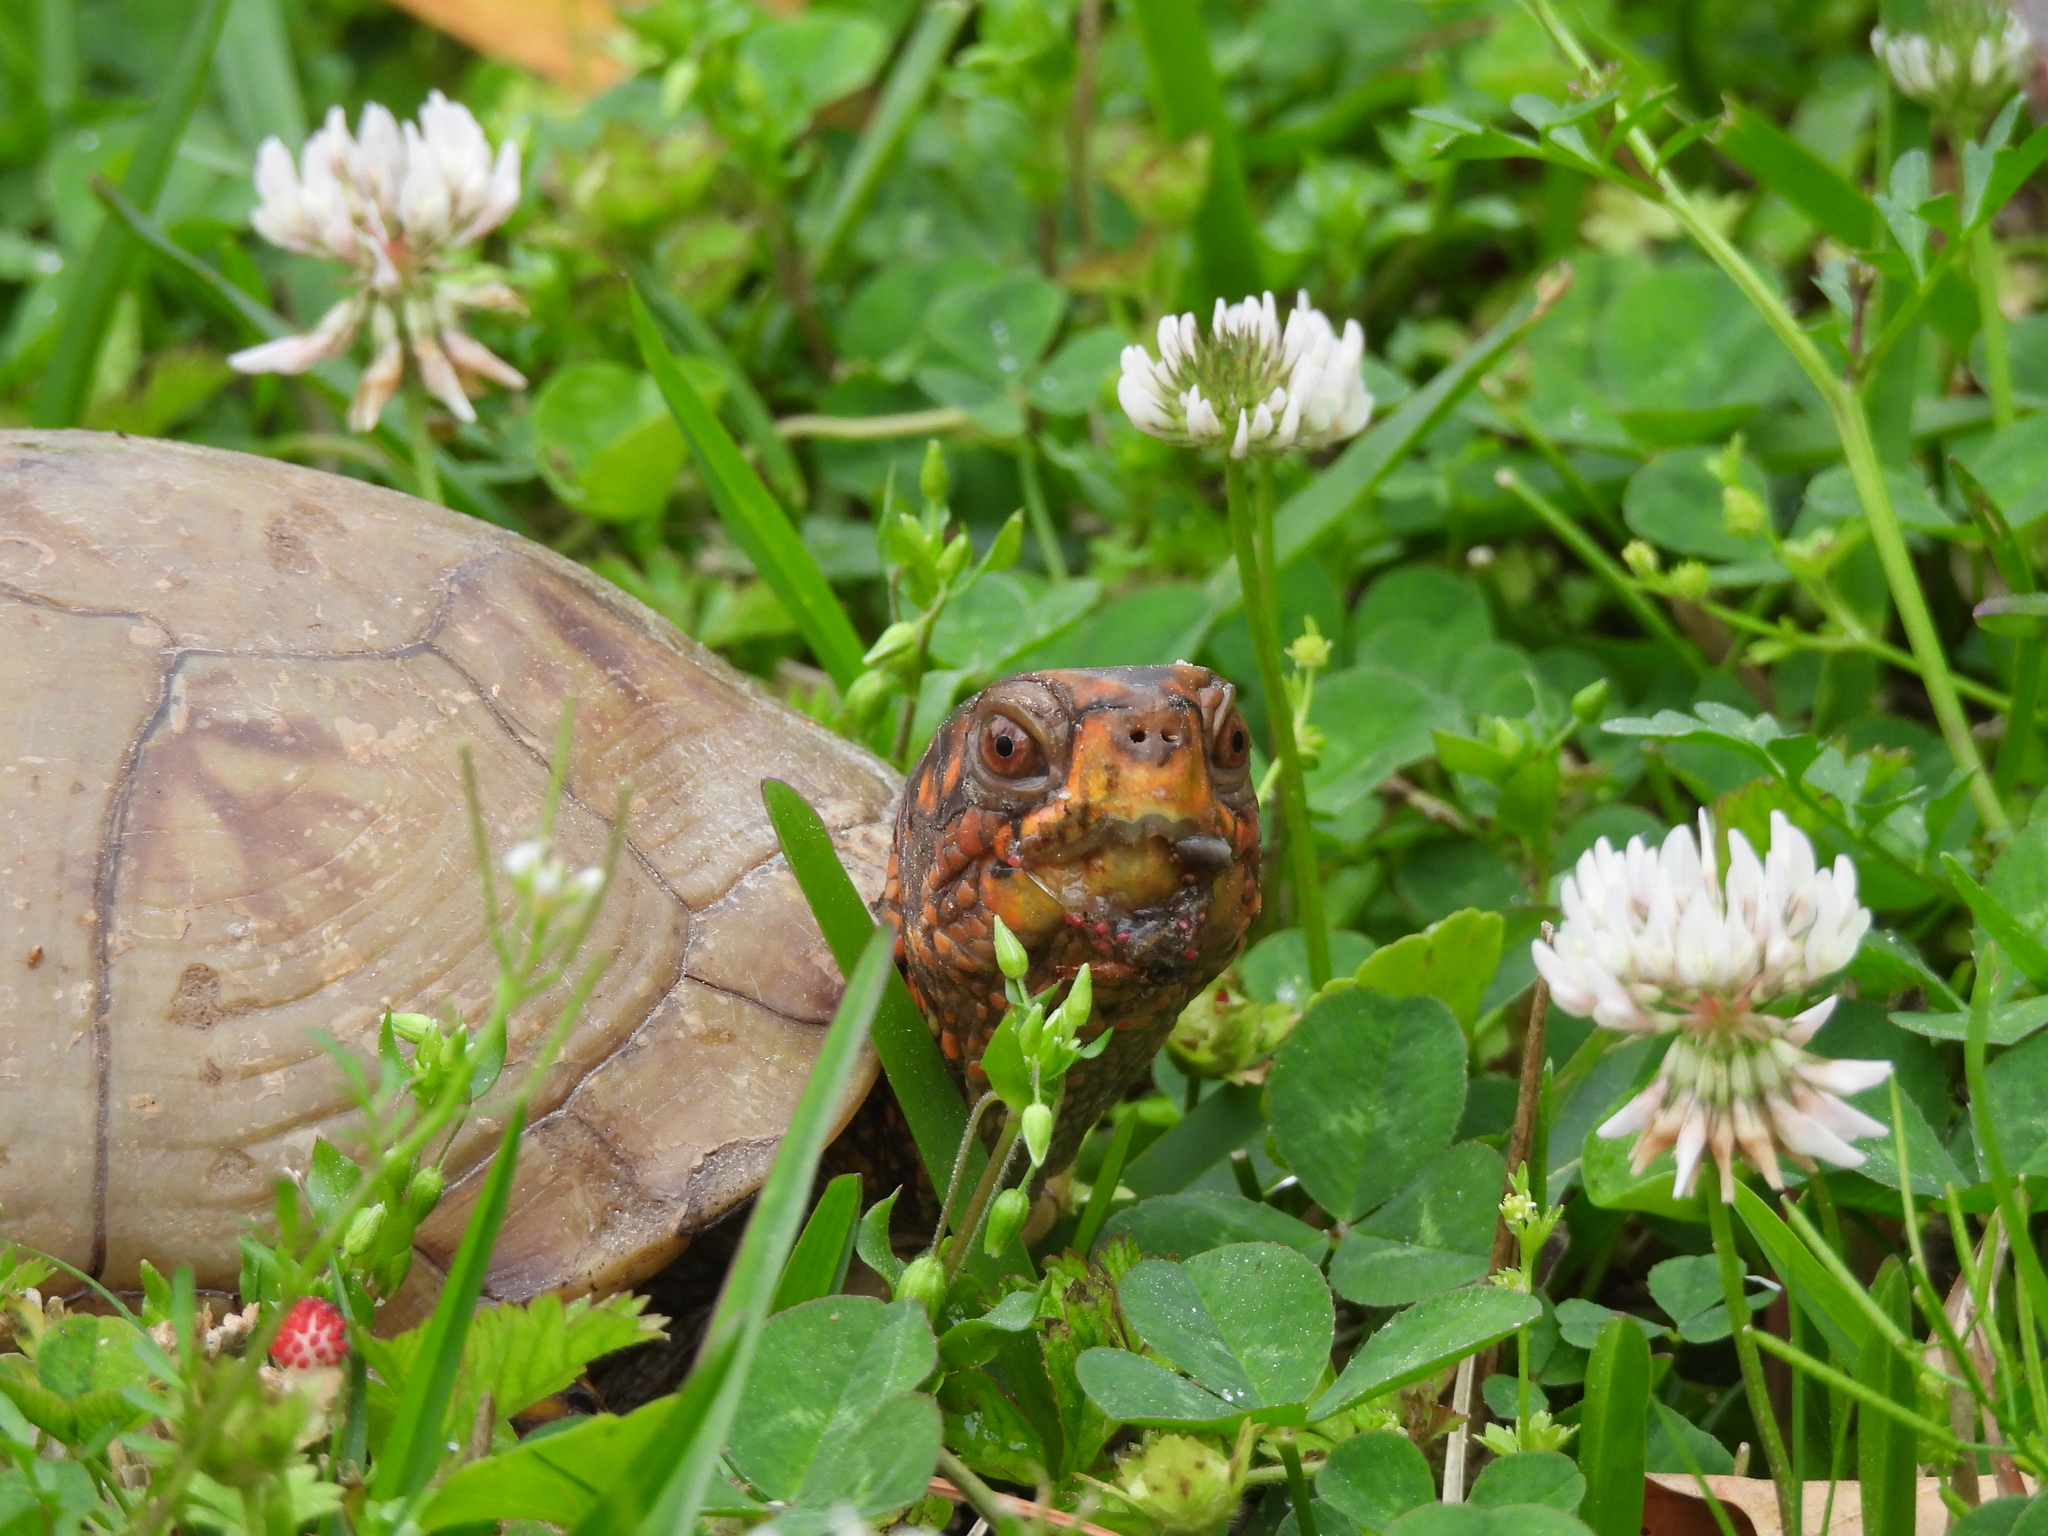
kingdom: Plantae
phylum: Tracheophyta
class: Magnoliopsida
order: Fabales
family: Fabaceae
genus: Trifolium
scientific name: Trifolium repens
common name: White clover
